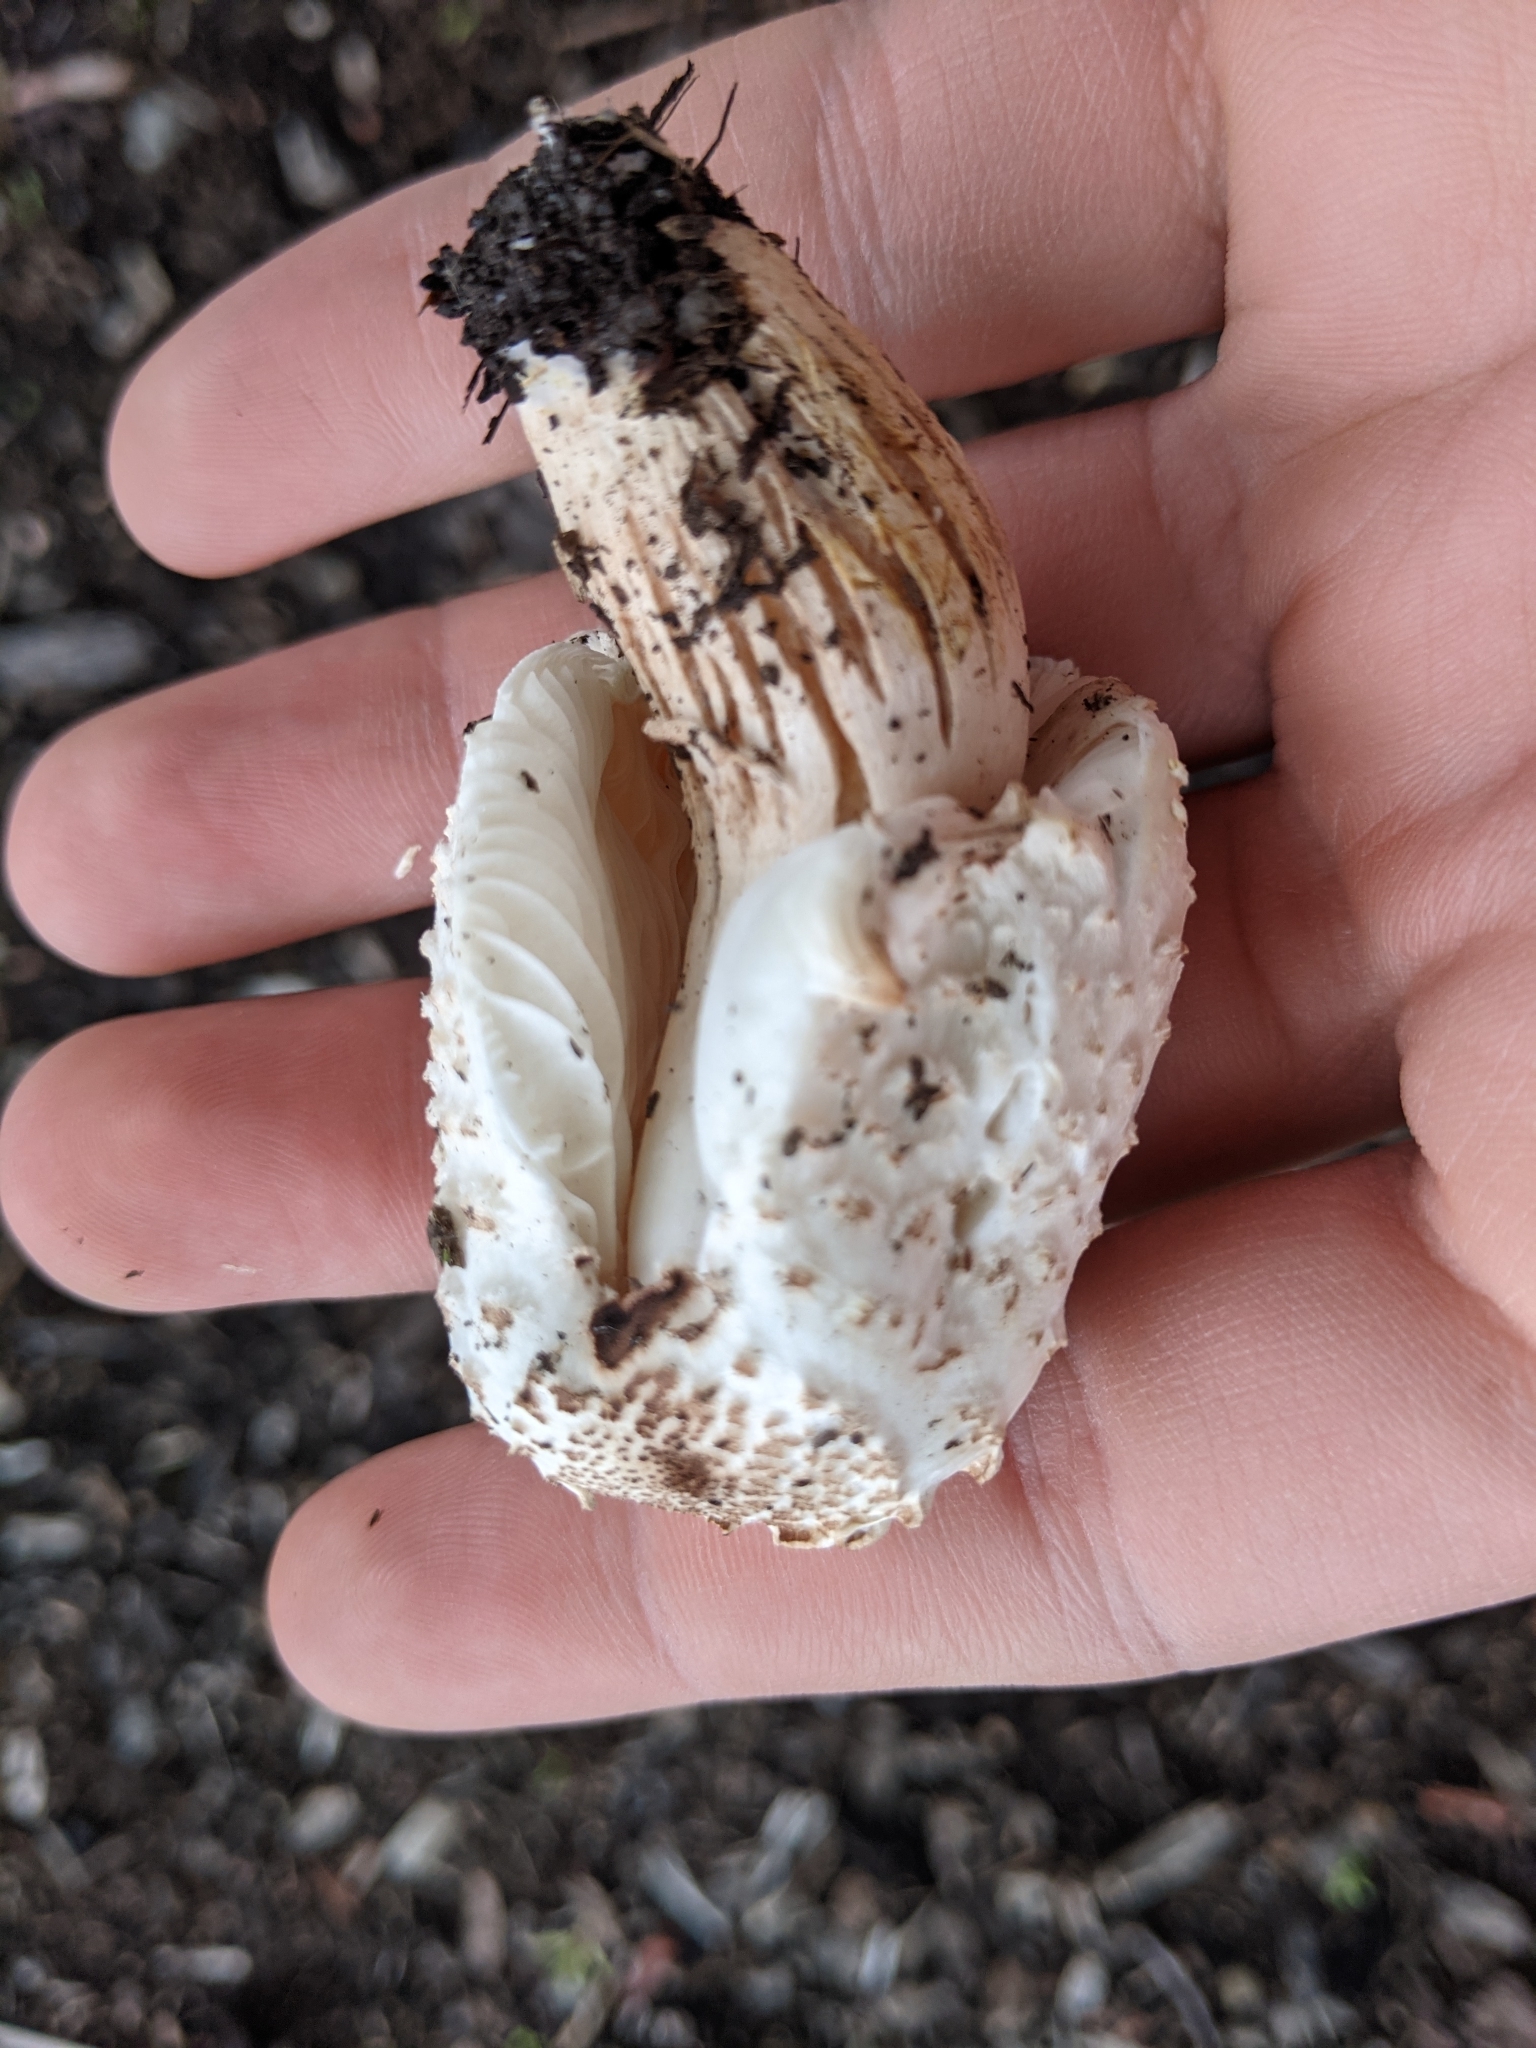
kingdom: Fungi
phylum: Basidiomycota
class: Agaricomycetes
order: Agaricales
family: Agaricaceae
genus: Leucoagaricus
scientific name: Leucoagaricus americanus
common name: Reddening lepiota
